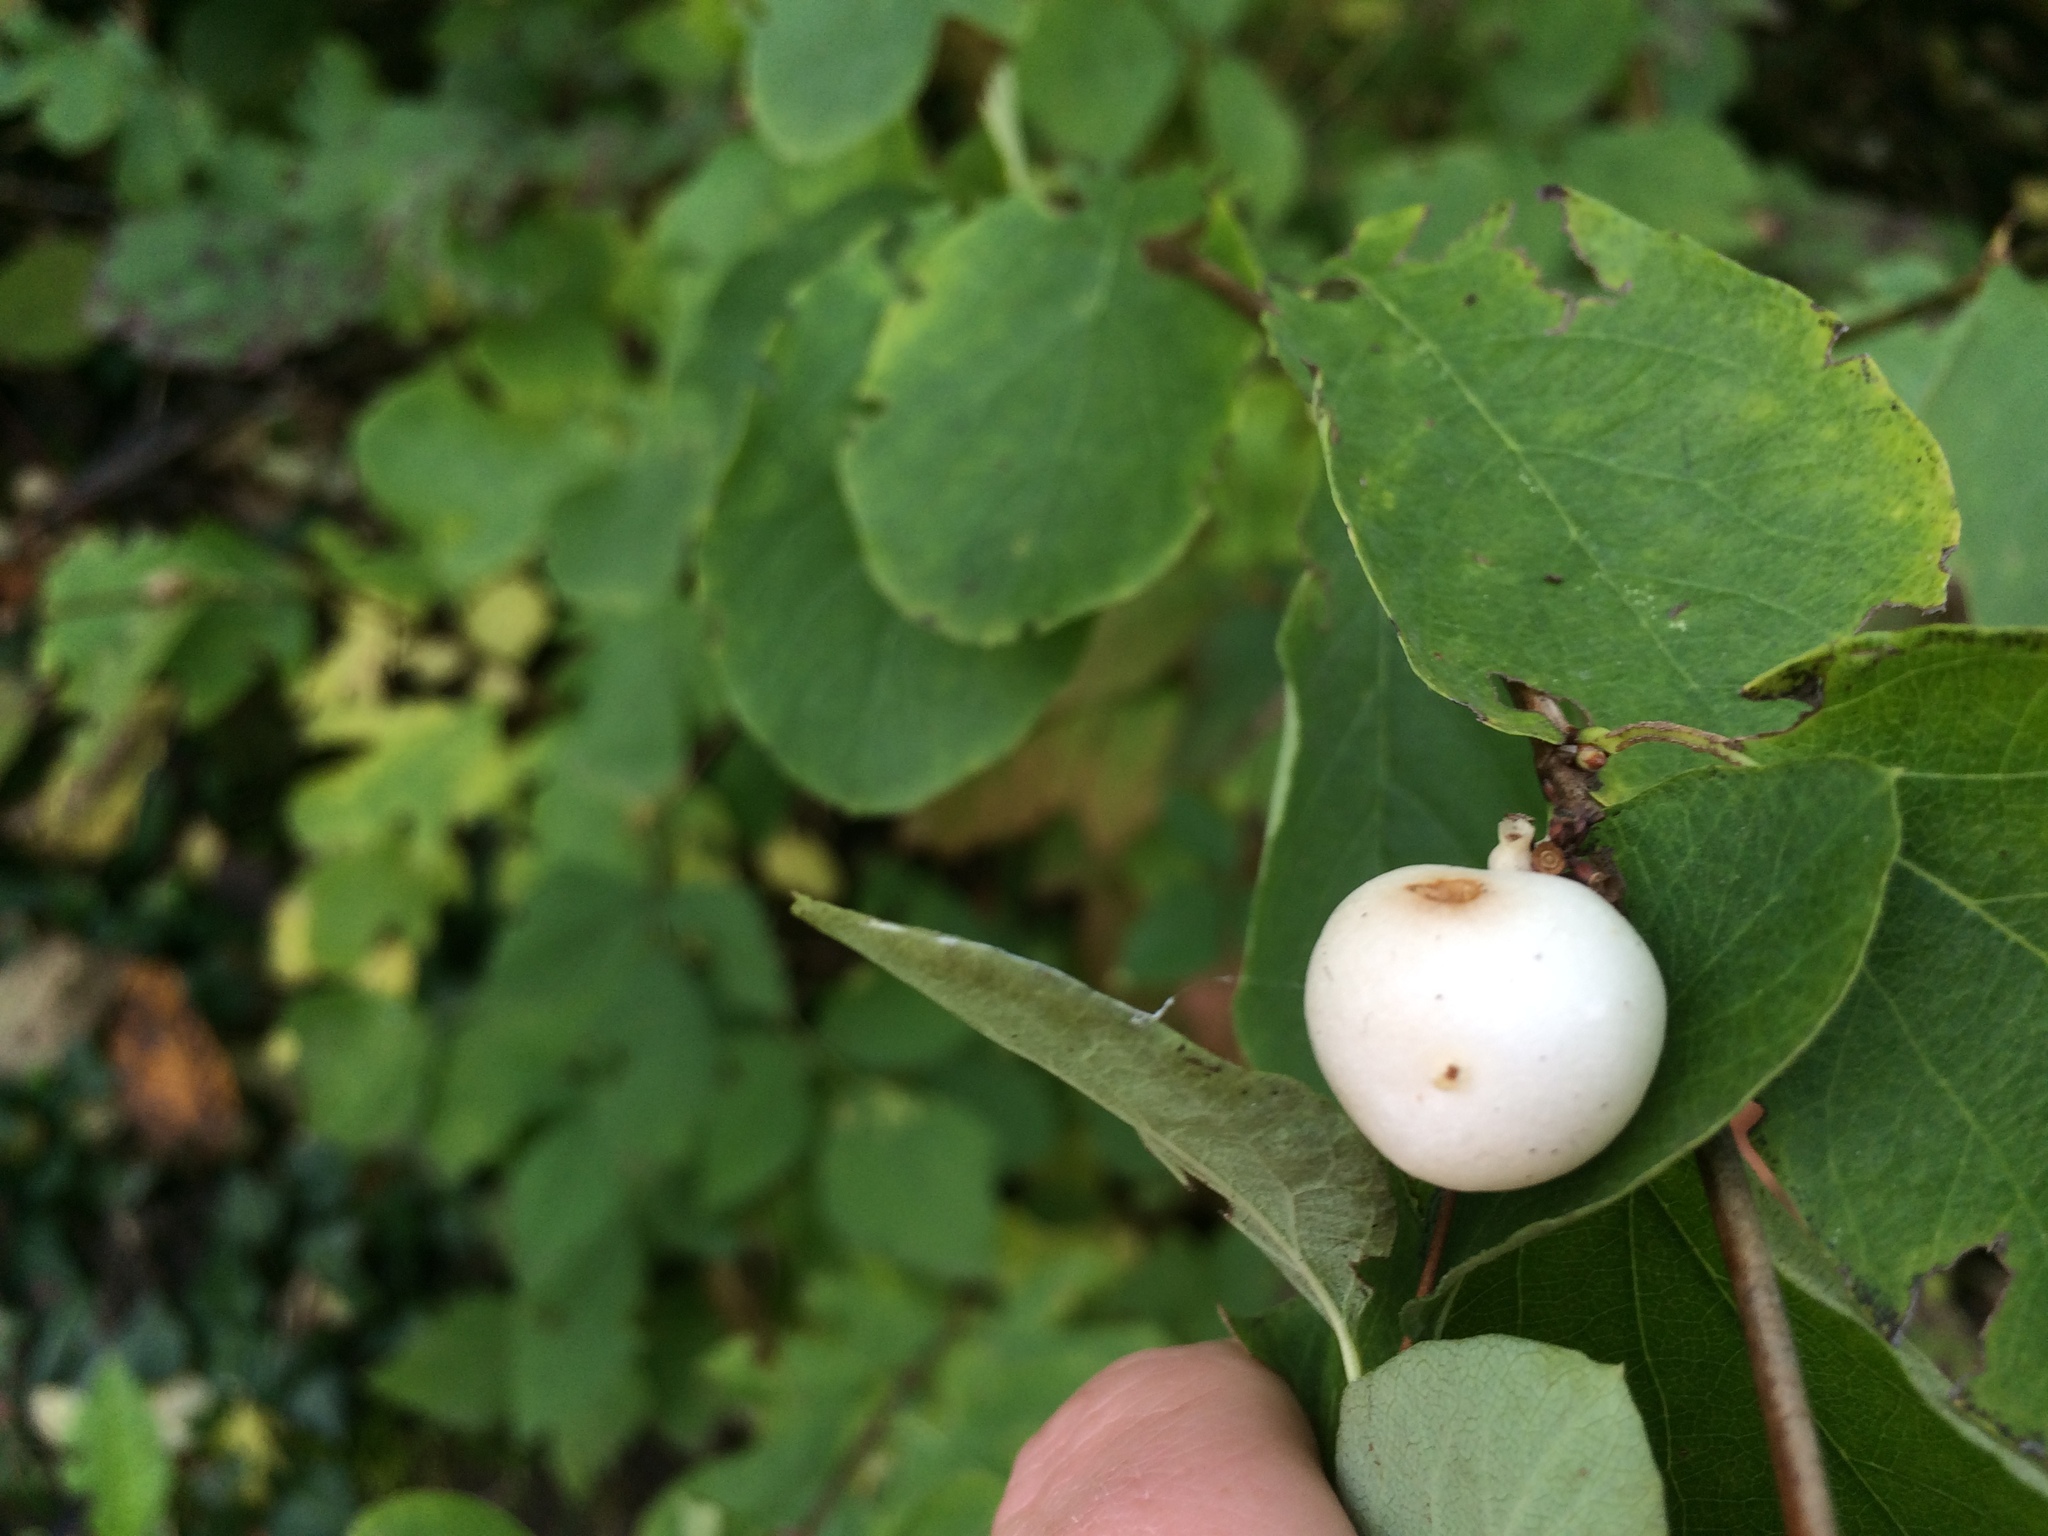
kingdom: Plantae
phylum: Tracheophyta
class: Magnoliopsida
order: Dipsacales
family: Caprifoliaceae
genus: Symphoricarpos
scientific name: Symphoricarpos albus
